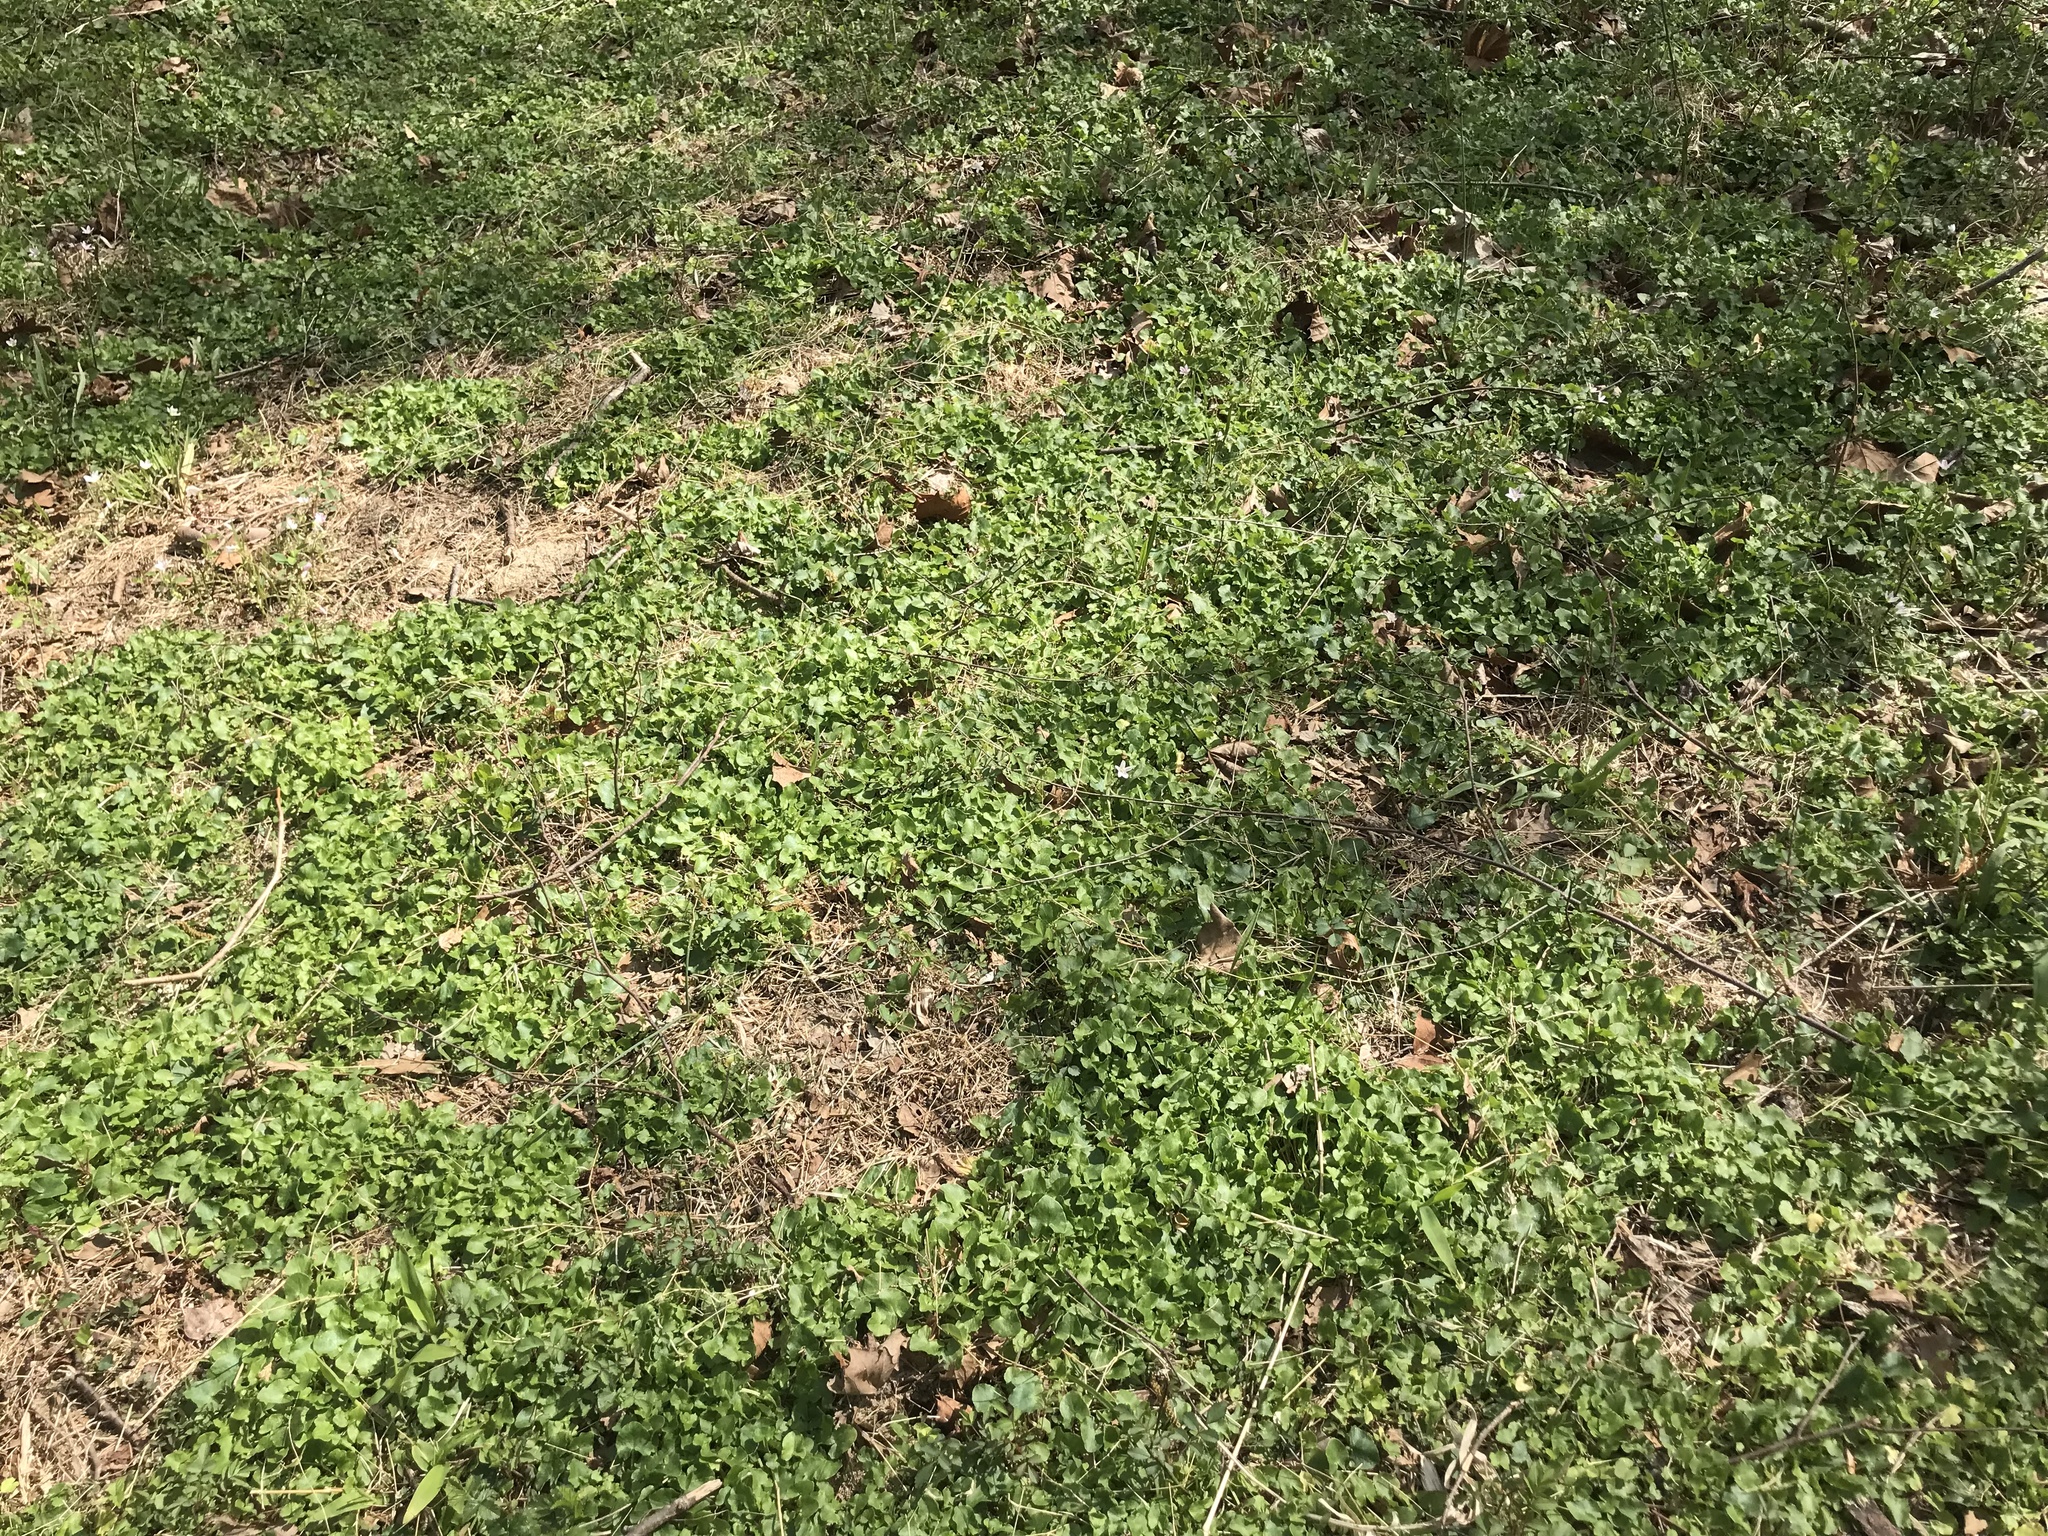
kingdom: Plantae
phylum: Tracheophyta
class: Magnoliopsida
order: Ranunculales
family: Ranunculaceae
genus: Ficaria
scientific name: Ficaria verna
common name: Lesser celandine
